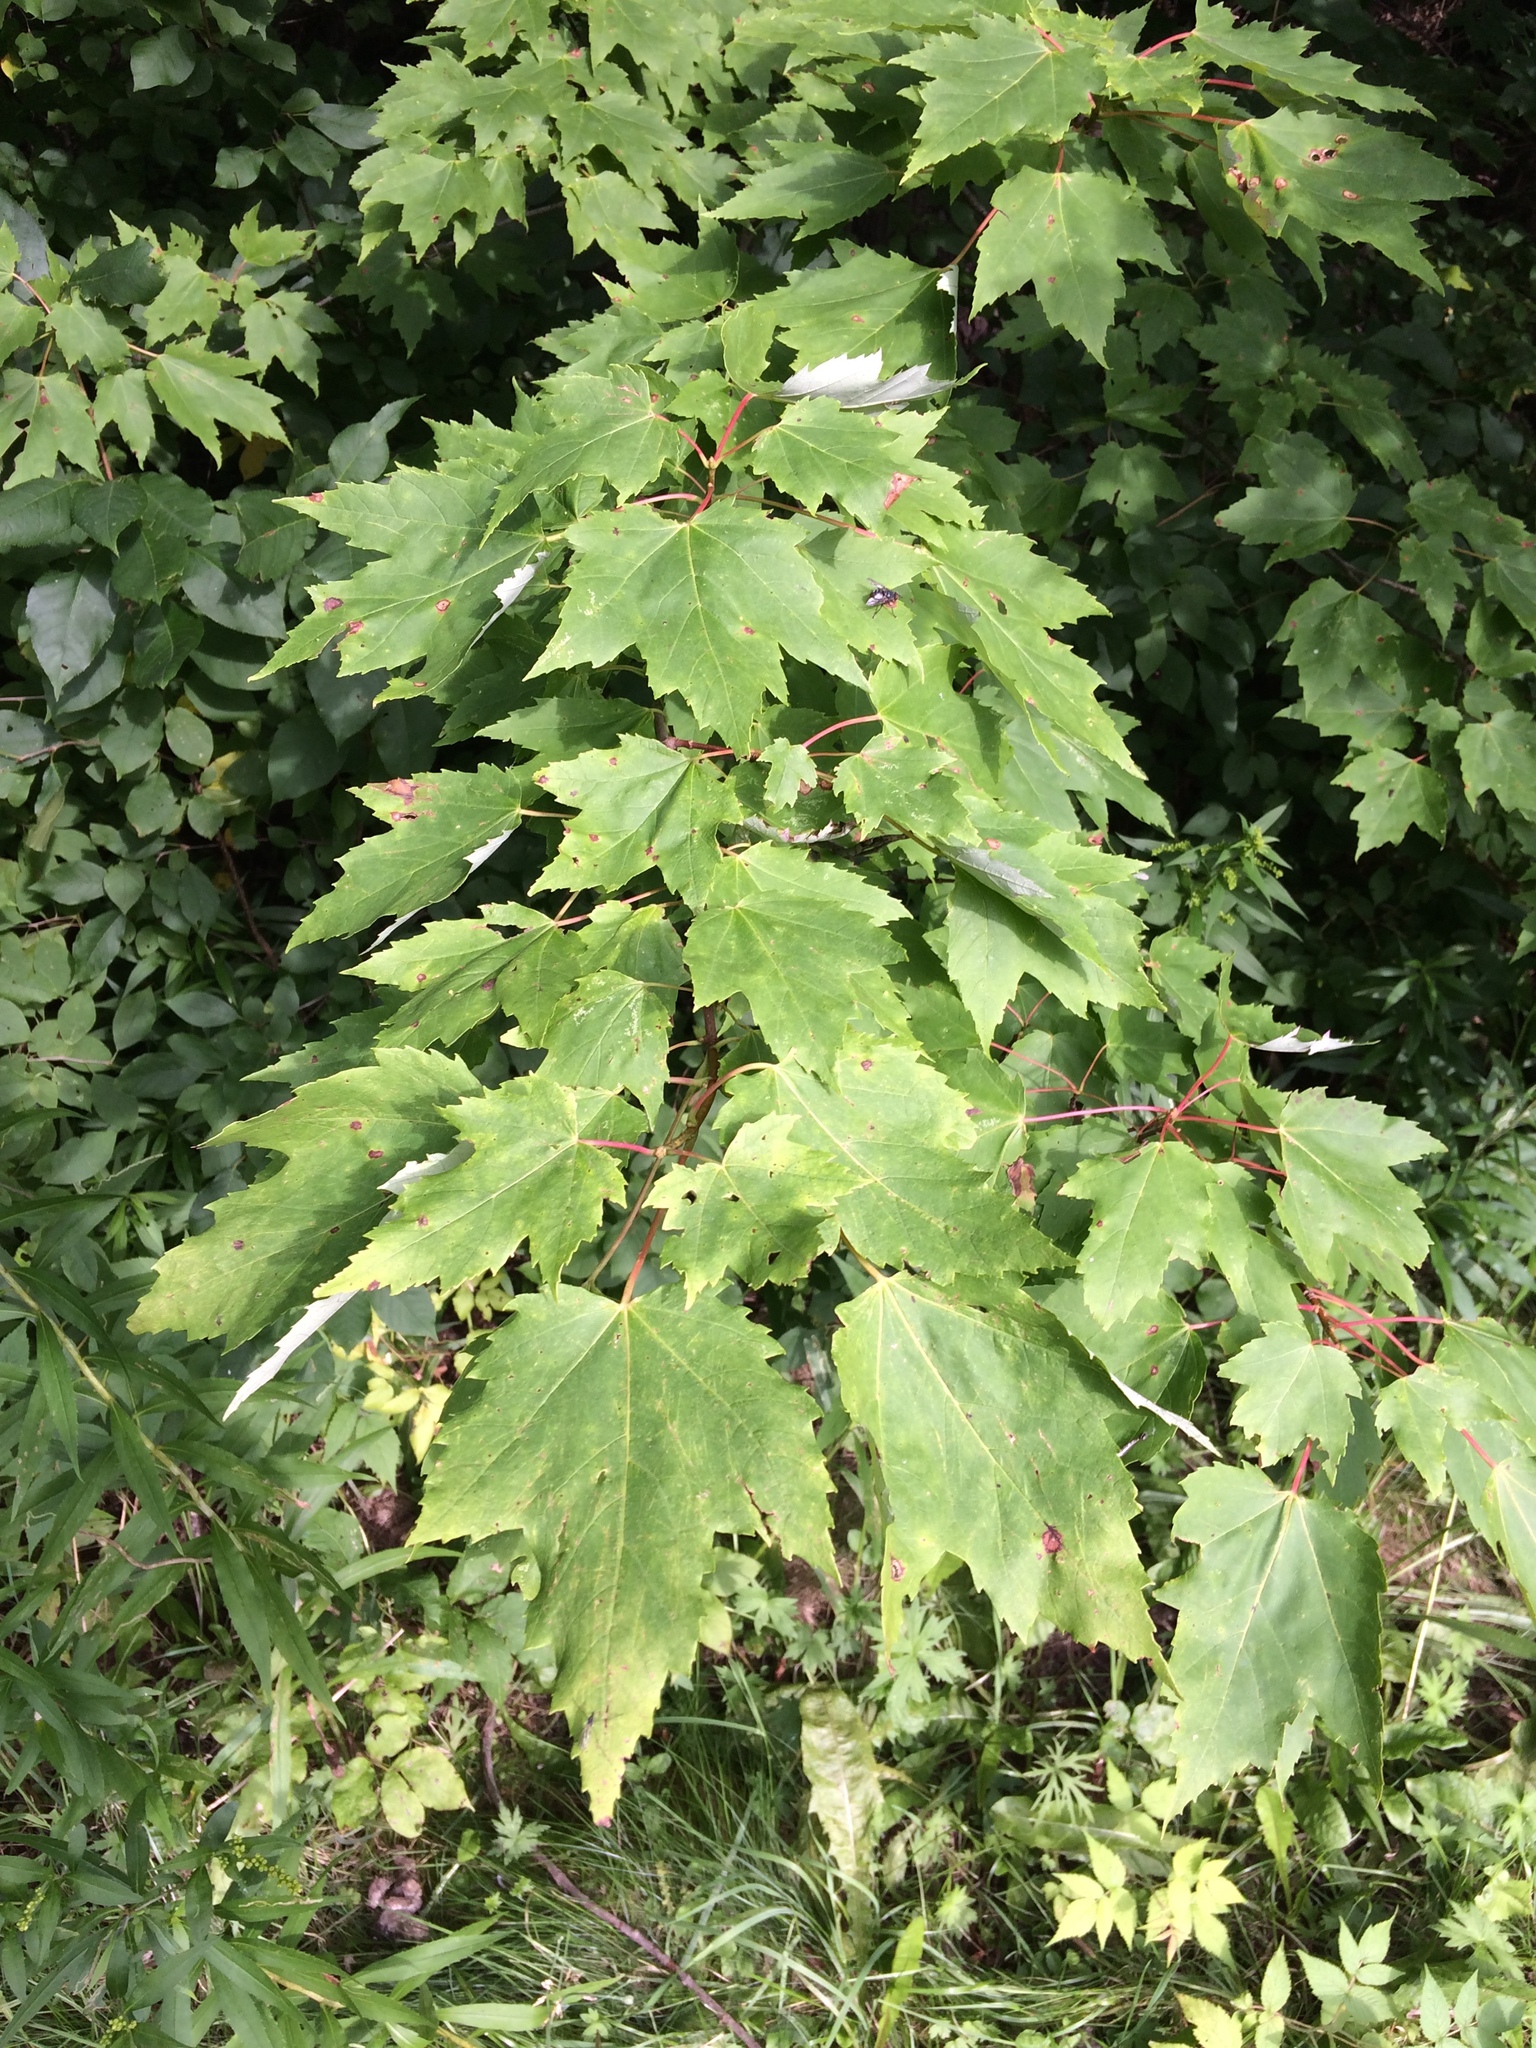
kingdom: Plantae
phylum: Tracheophyta
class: Magnoliopsida
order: Sapindales
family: Sapindaceae
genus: Acer
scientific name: Acer rubrum
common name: Red maple
